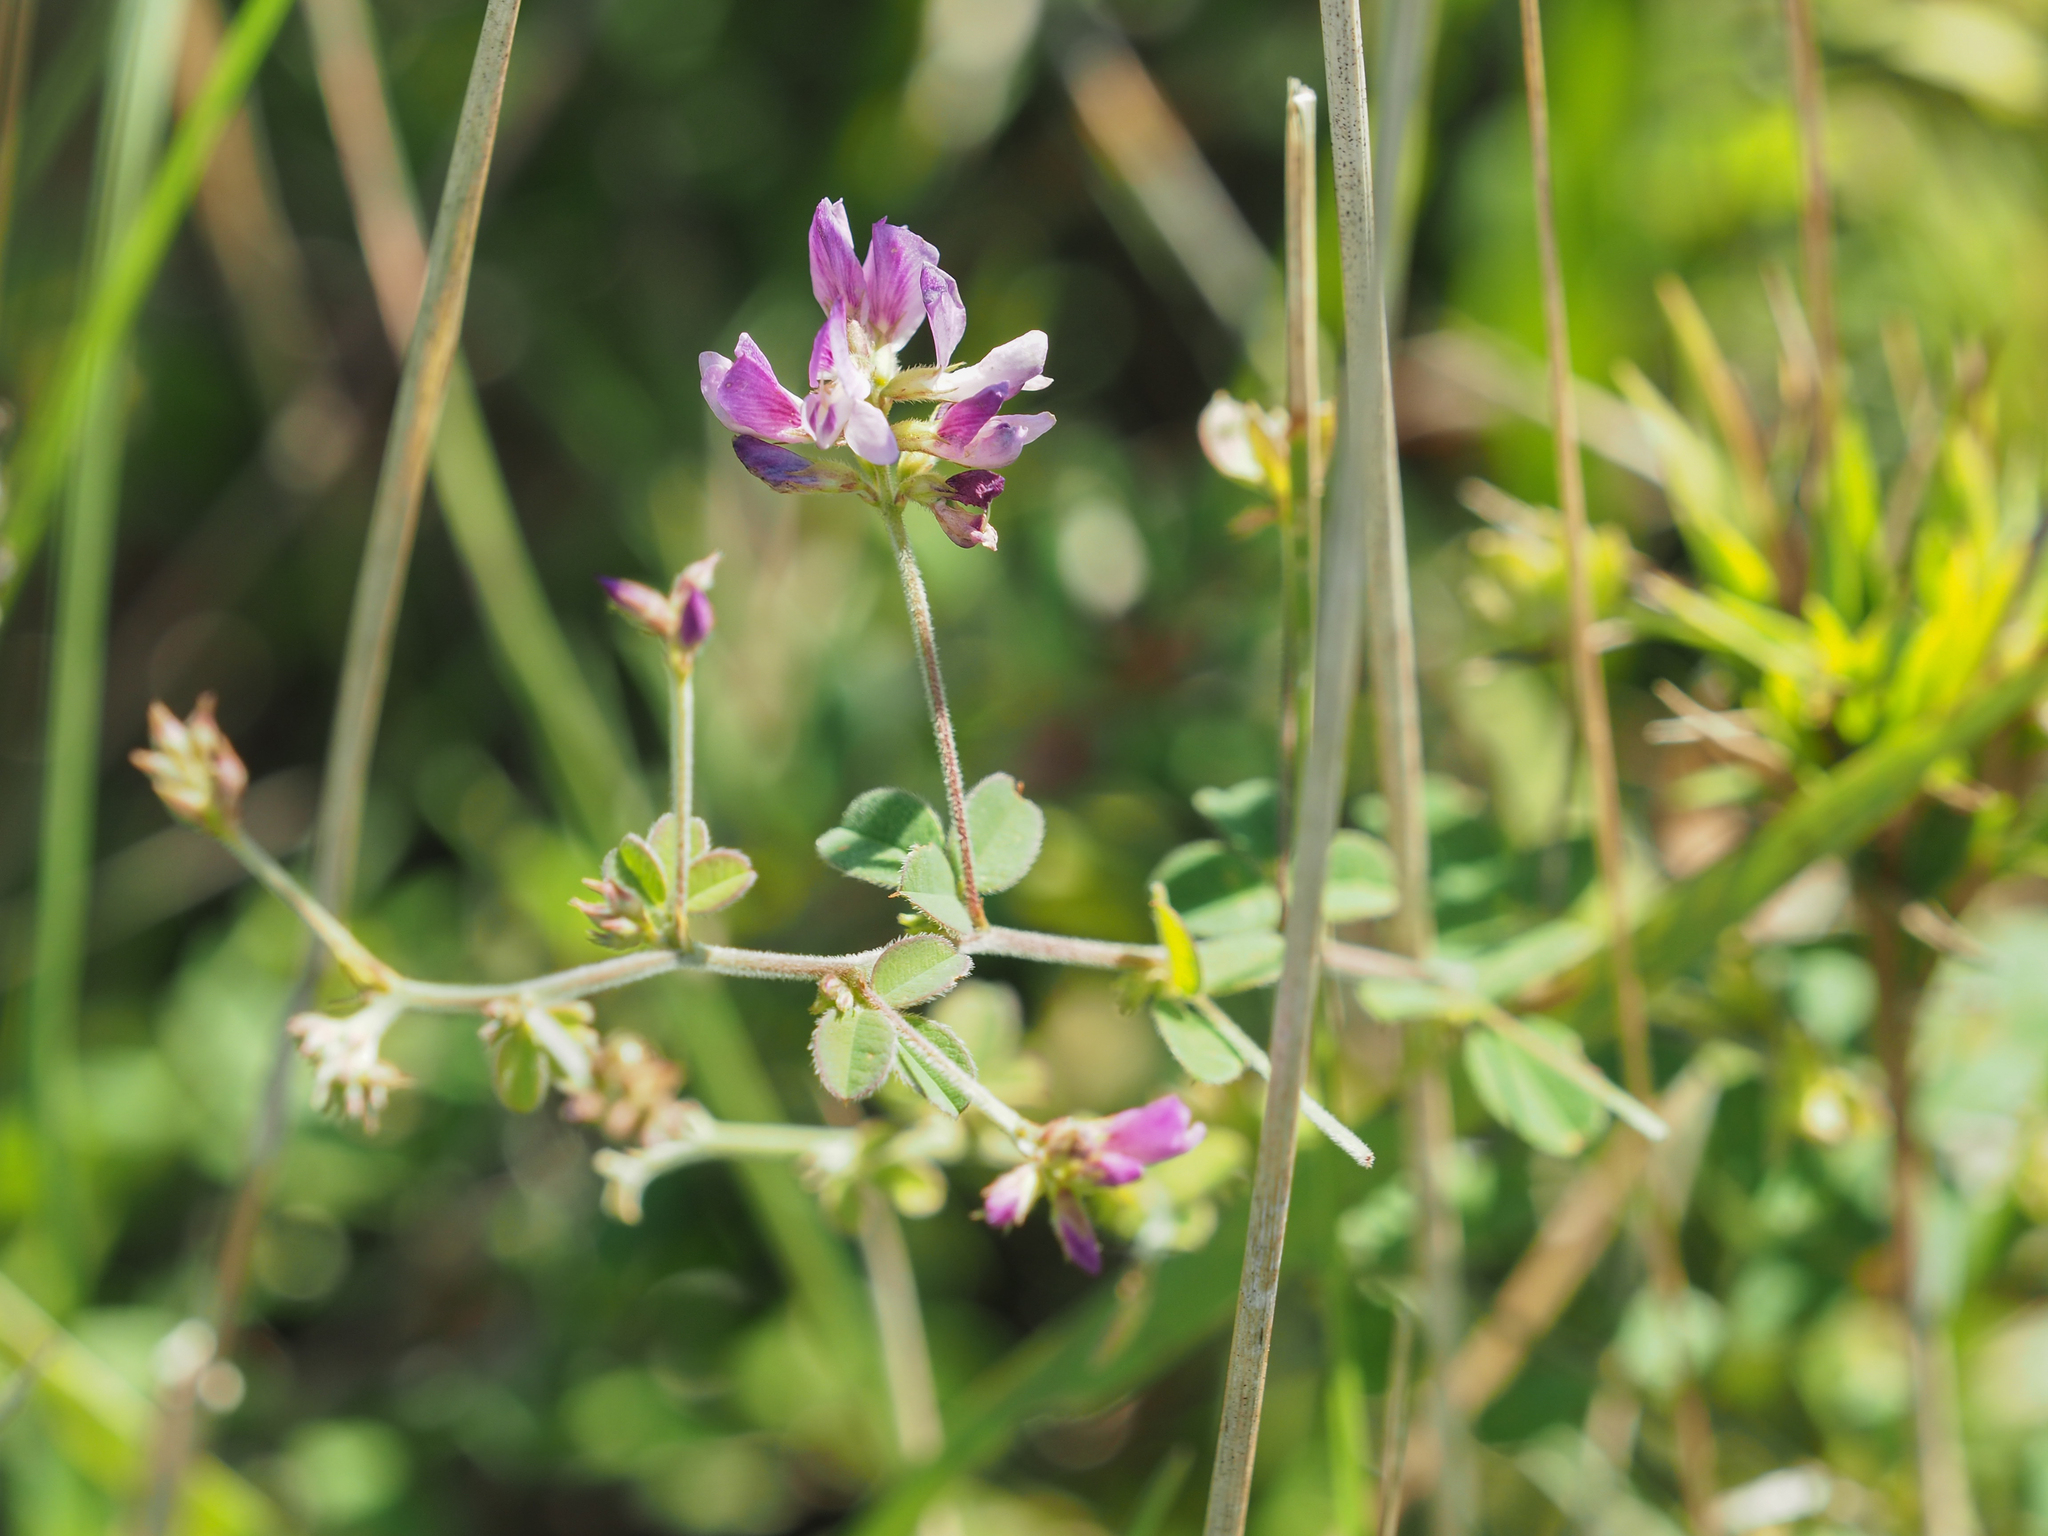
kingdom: Plantae
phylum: Tracheophyta
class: Magnoliopsida
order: Fabales
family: Fabaceae
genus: Lespedeza
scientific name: Lespedeza procumbens
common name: Downy trailing bush-clover
